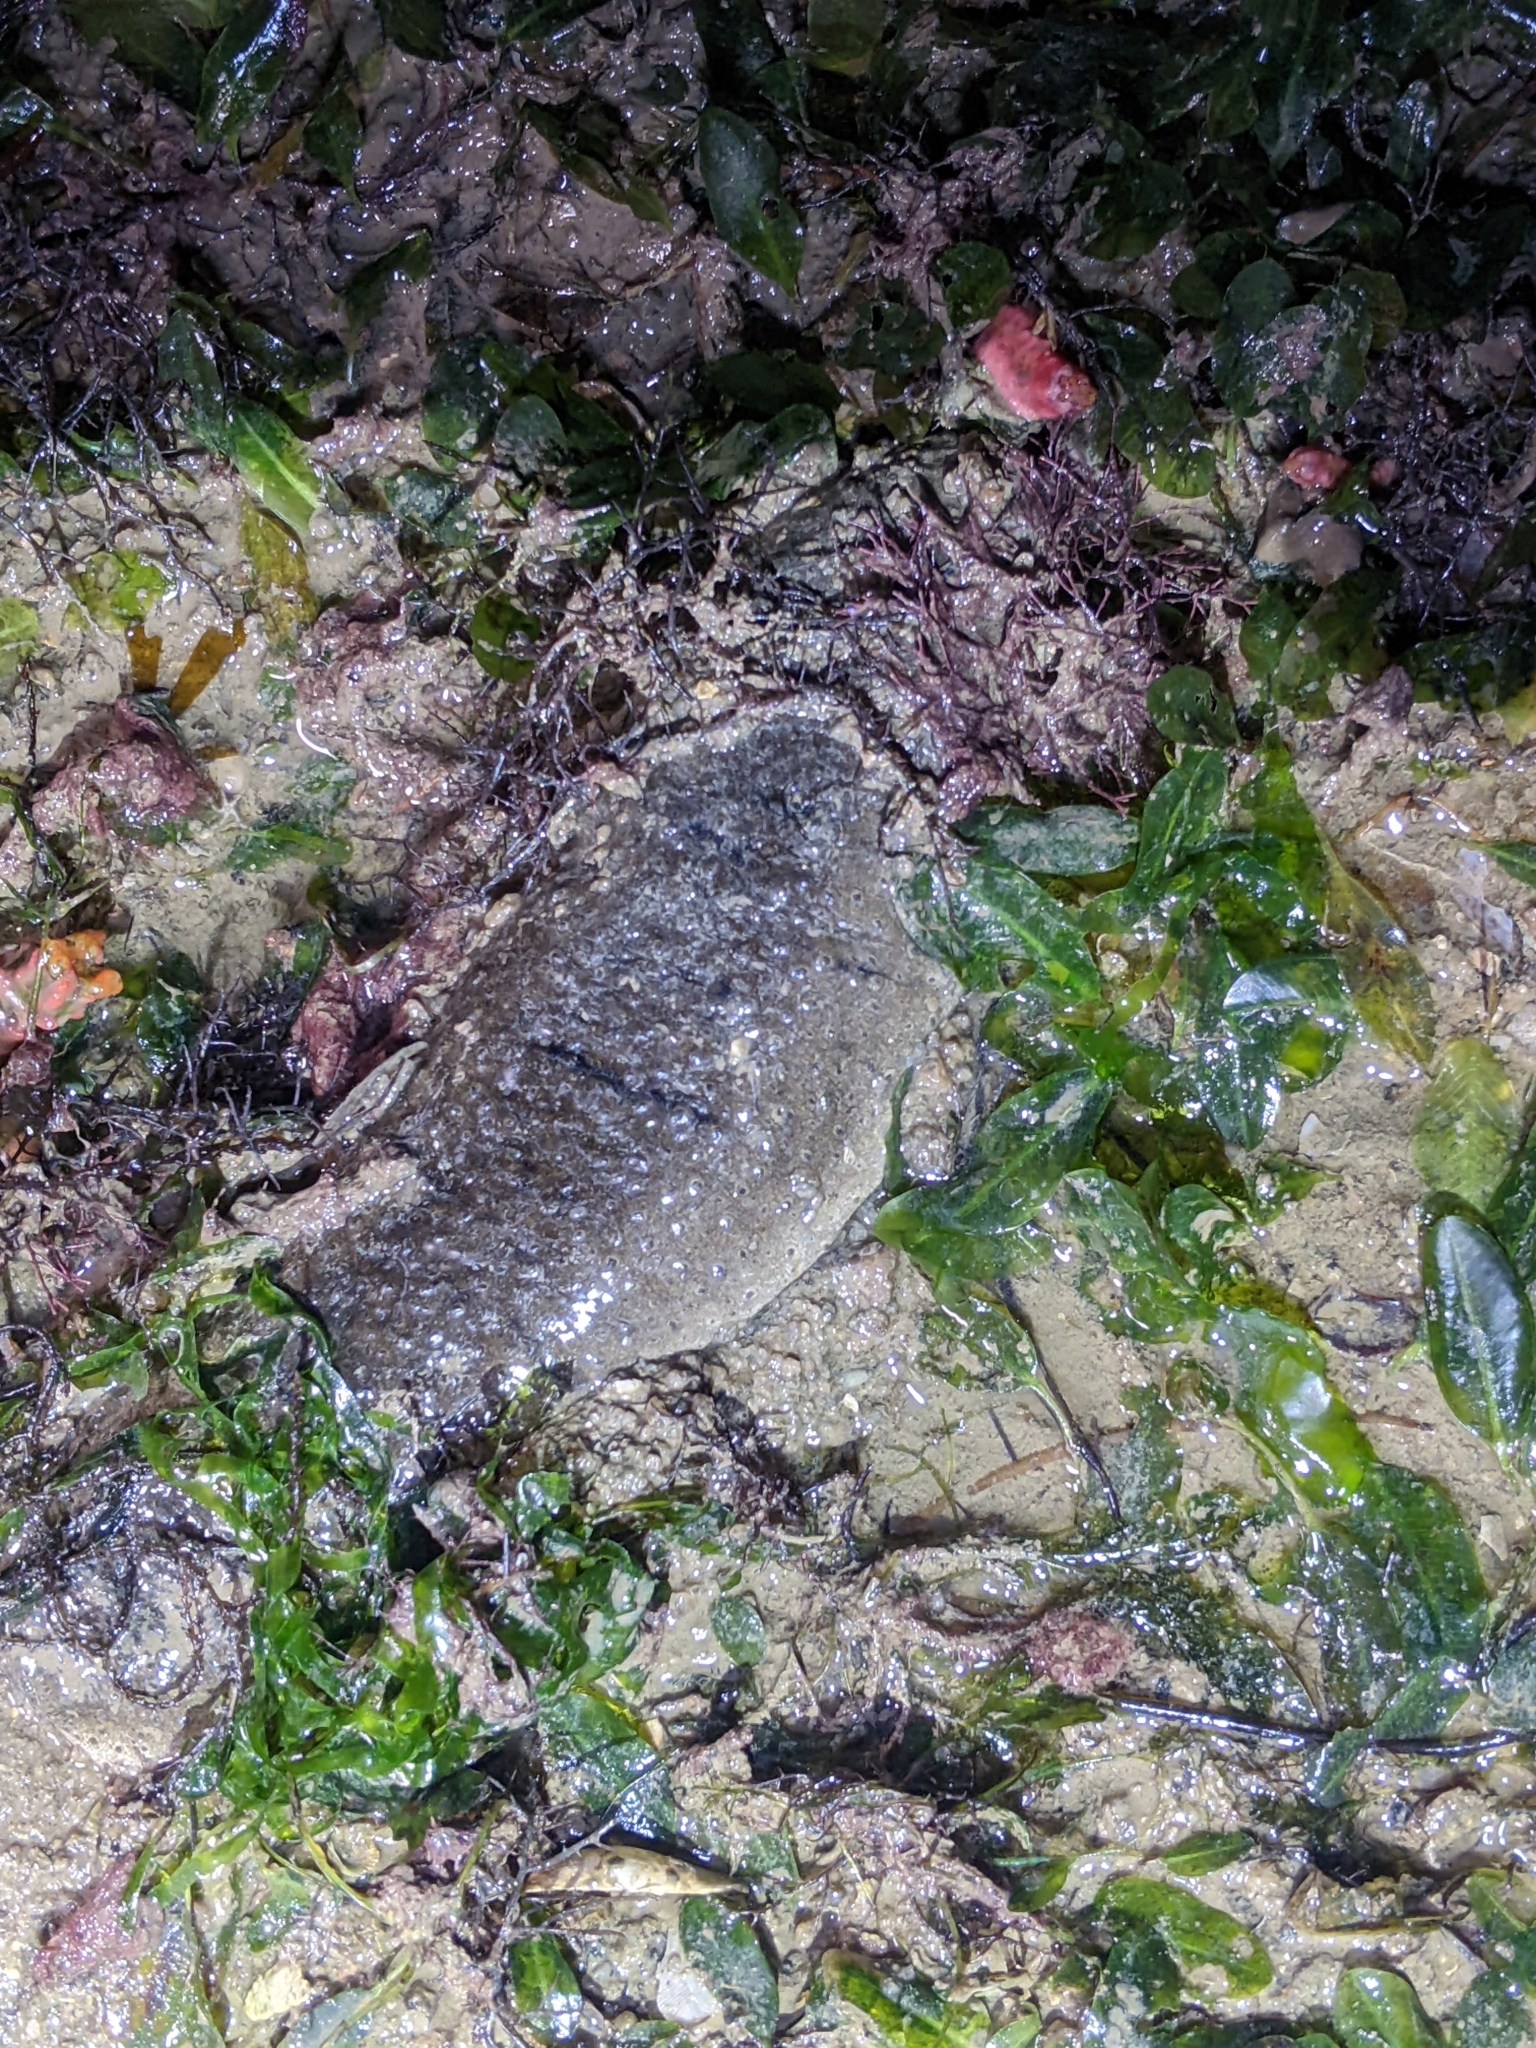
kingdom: Animalia
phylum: Echinodermata
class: Holothuroidea
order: Holothuriida
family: Holothuriidae
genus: Holothuria
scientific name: Holothuria scabra
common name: Golden sandfish
